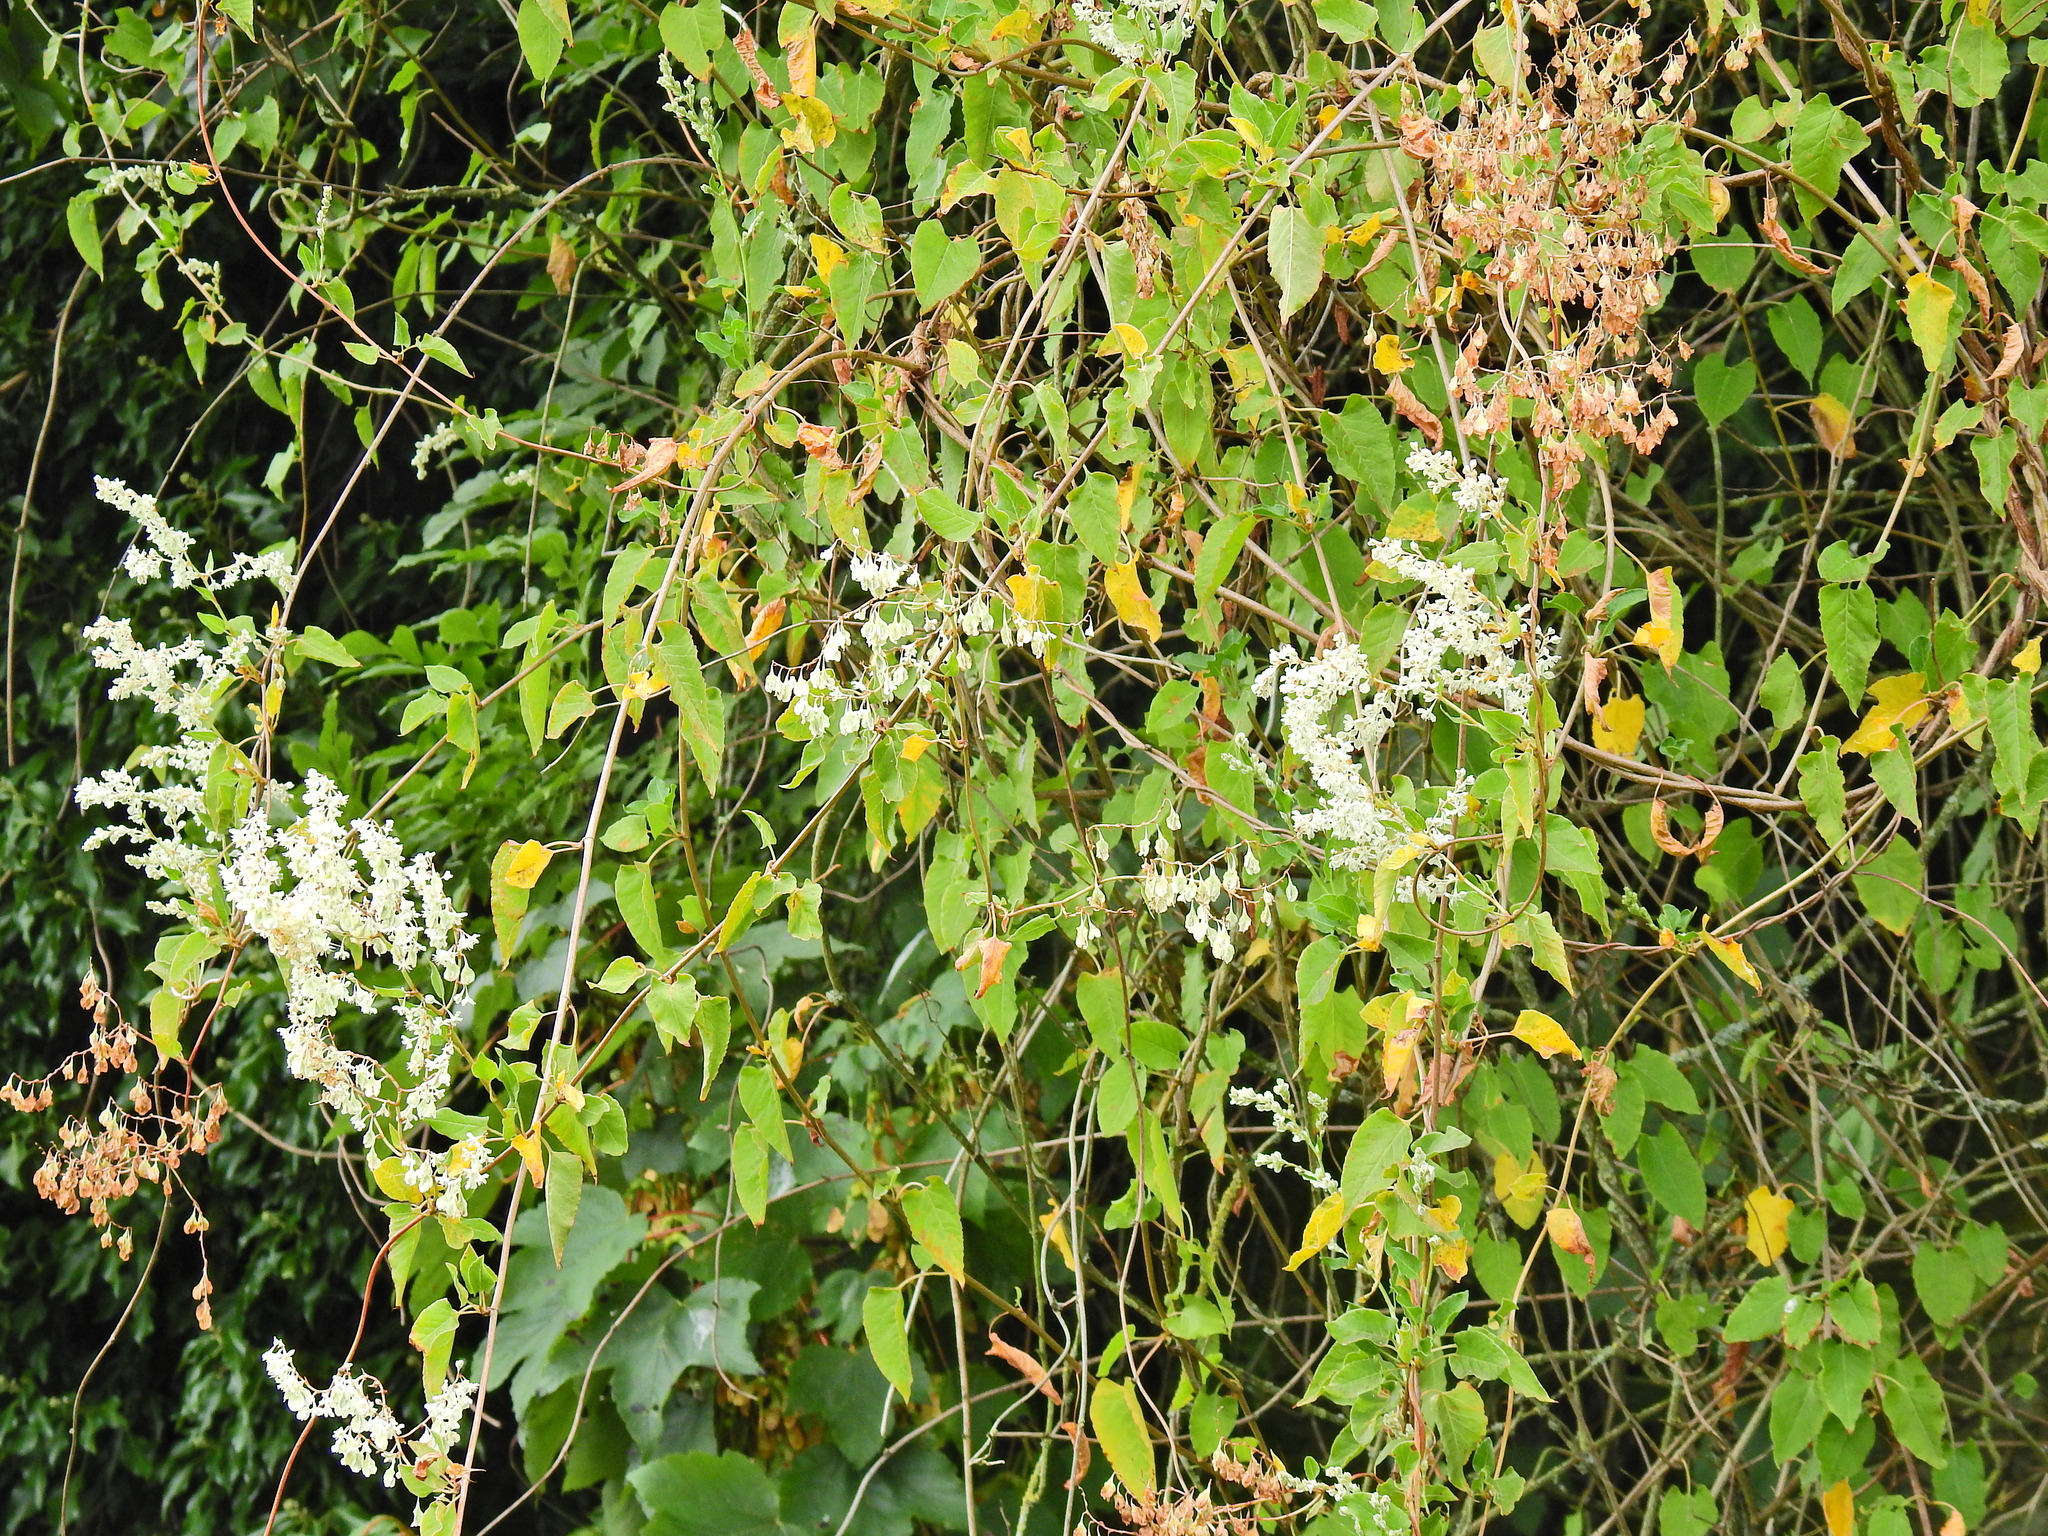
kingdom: Plantae
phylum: Tracheophyta
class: Magnoliopsida
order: Caryophyllales
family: Polygonaceae
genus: Fallopia
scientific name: Fallopia baldschuanica
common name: Russian-vine
